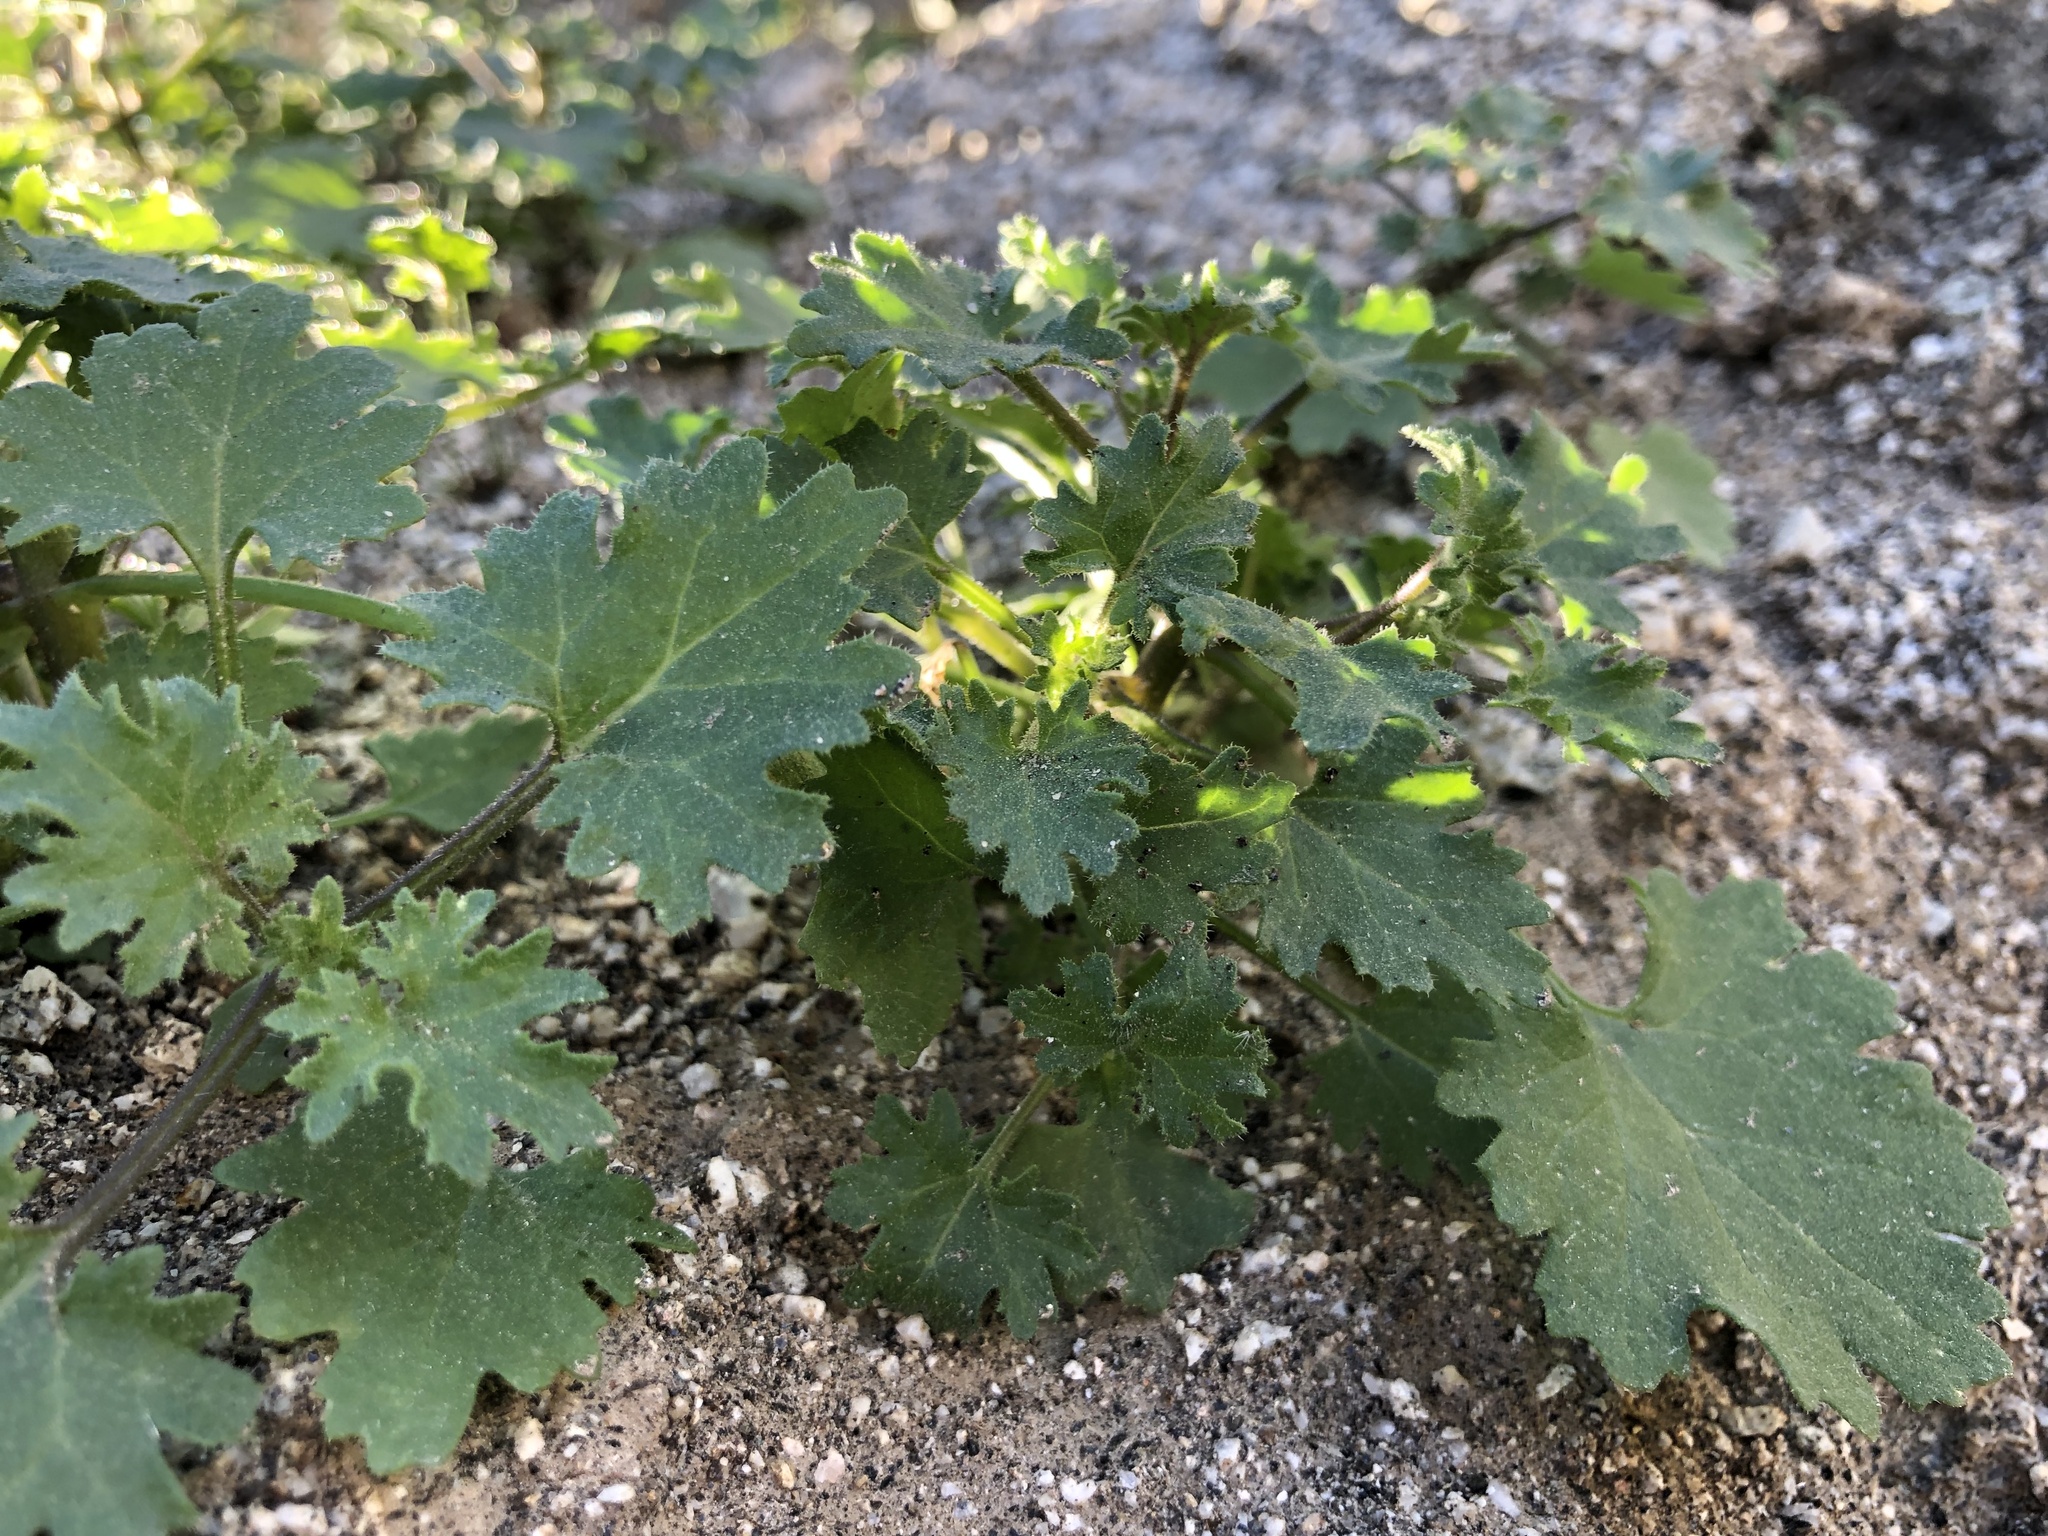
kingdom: Plantae
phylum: Tracheophyta
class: Magnoliopsida
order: Asterales
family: Asteraceae
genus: Laphamia
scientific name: Laphamia emoryi
